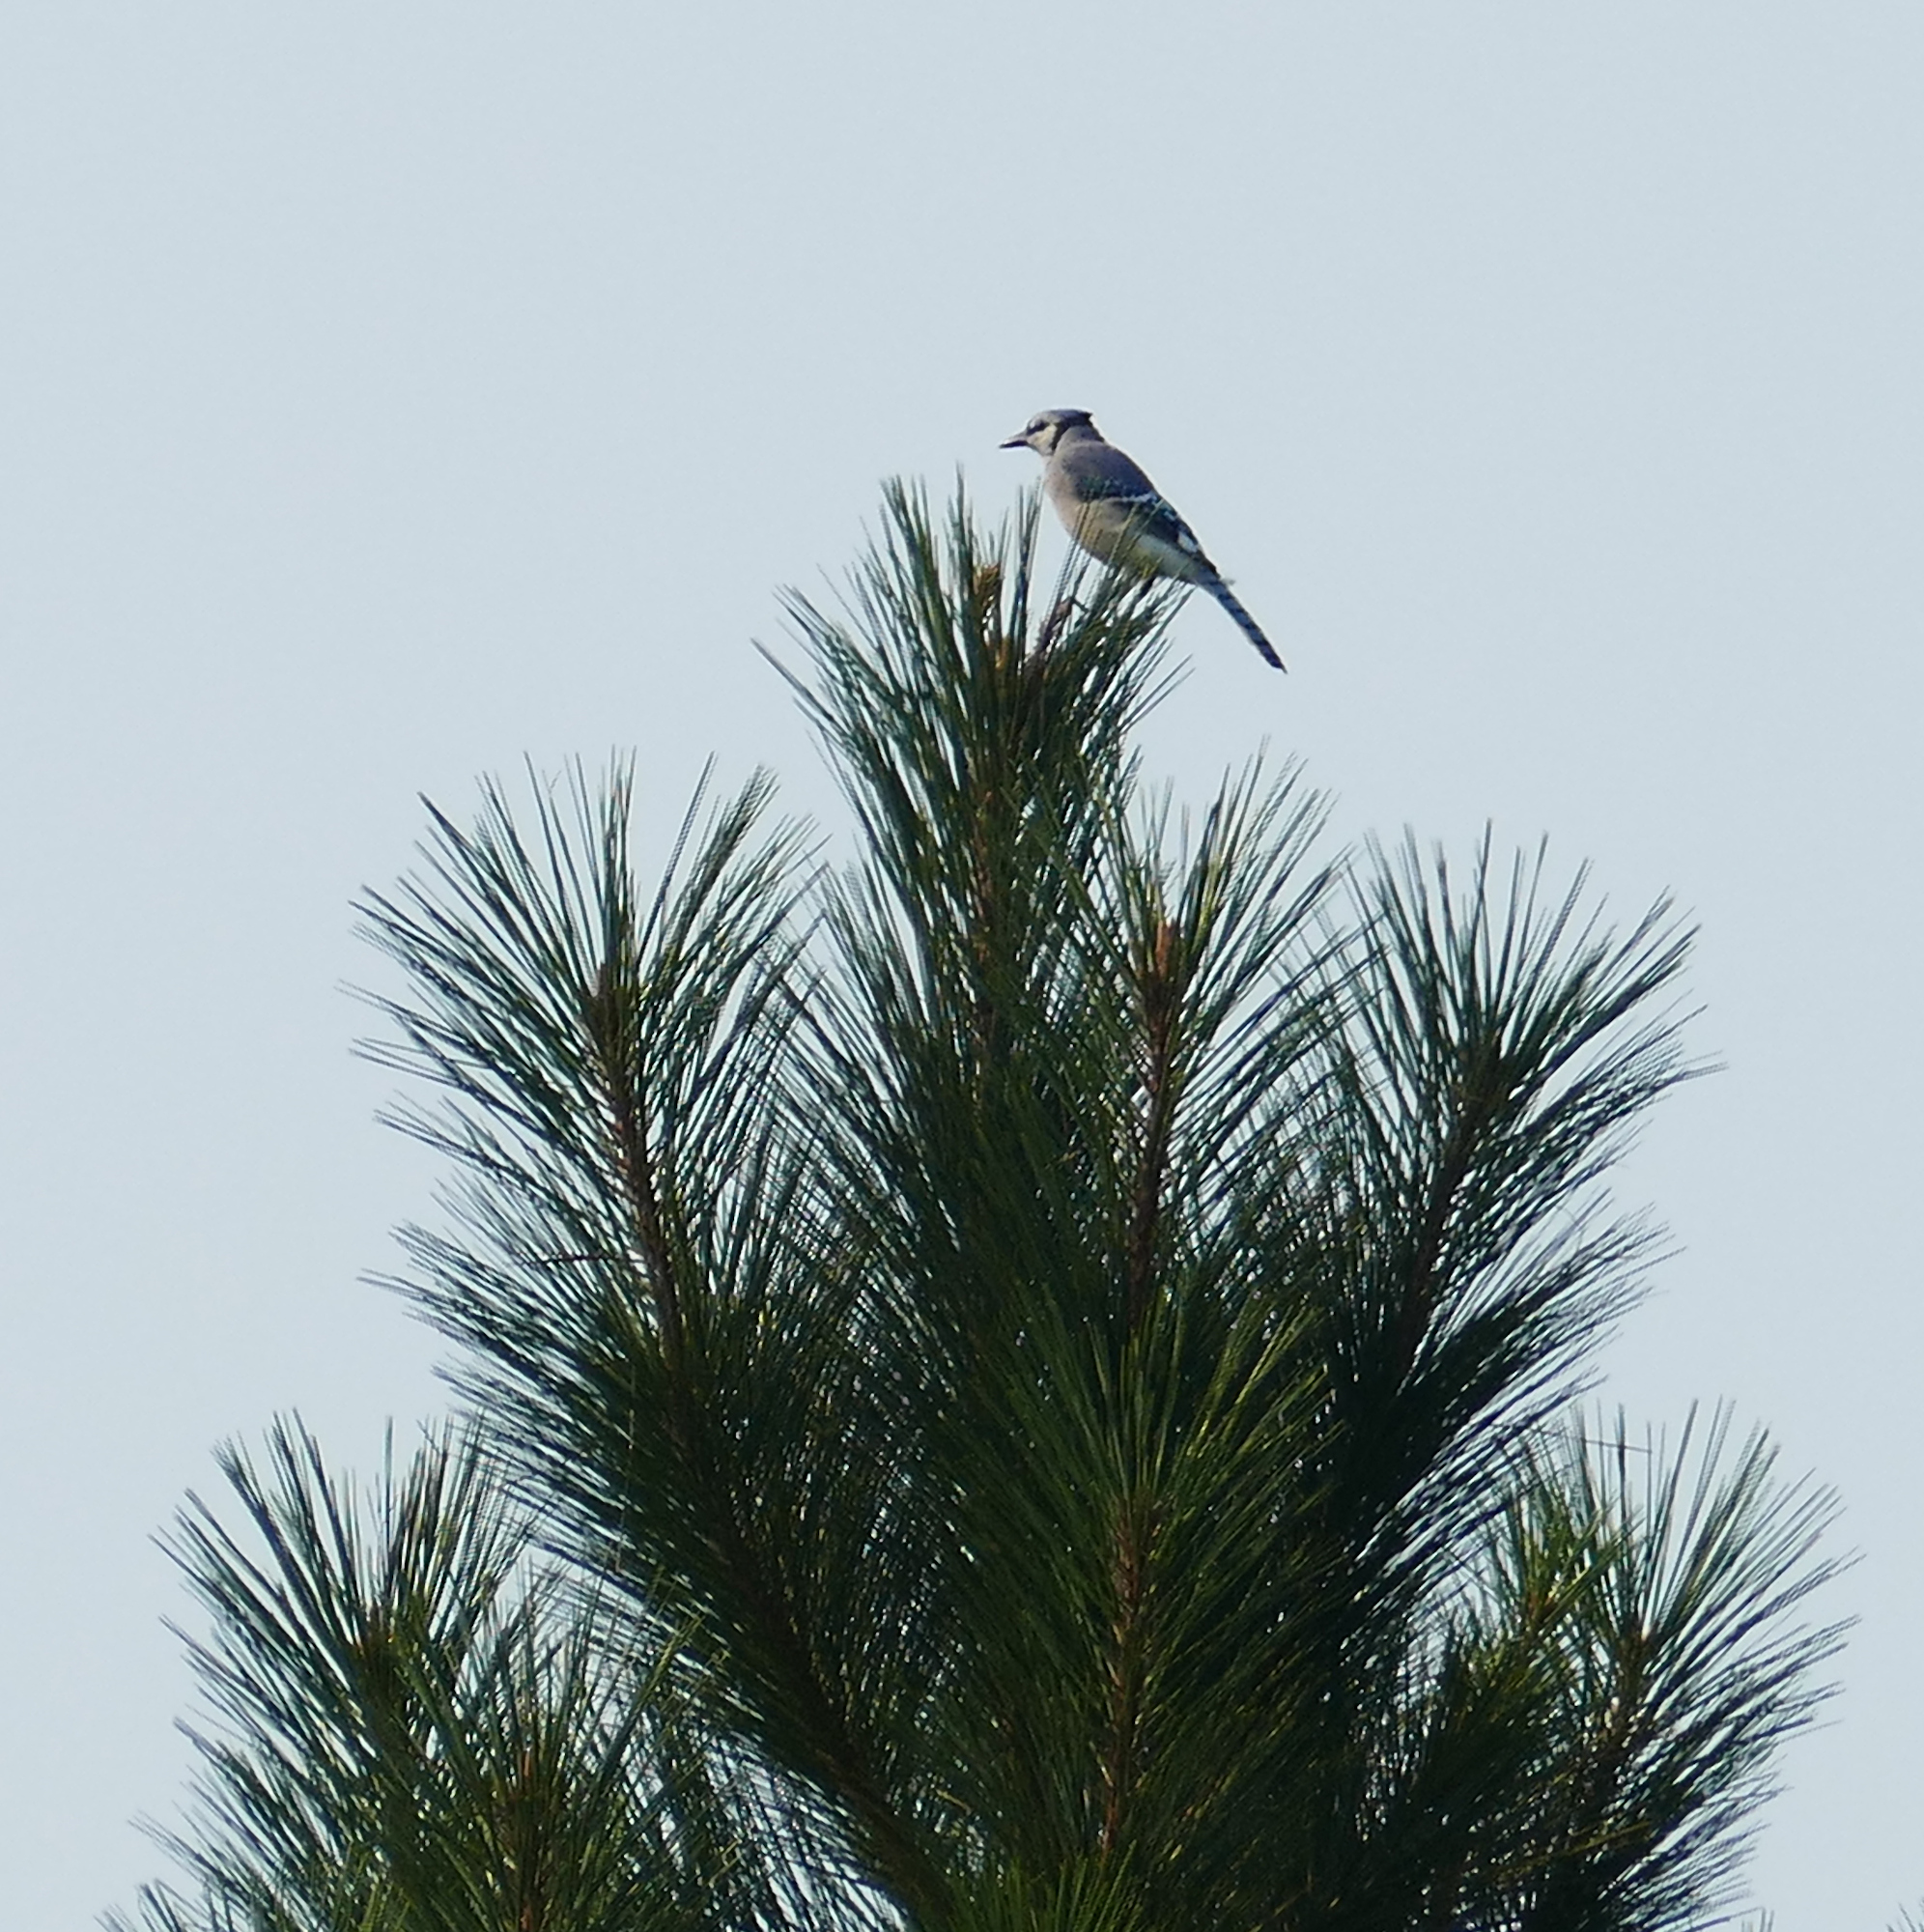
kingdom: Animalia
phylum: Chordata
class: Aves
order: Passeriformes
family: Corvidae
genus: Cyanocitta
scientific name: Cyanocitta cristata
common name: Blue jay
